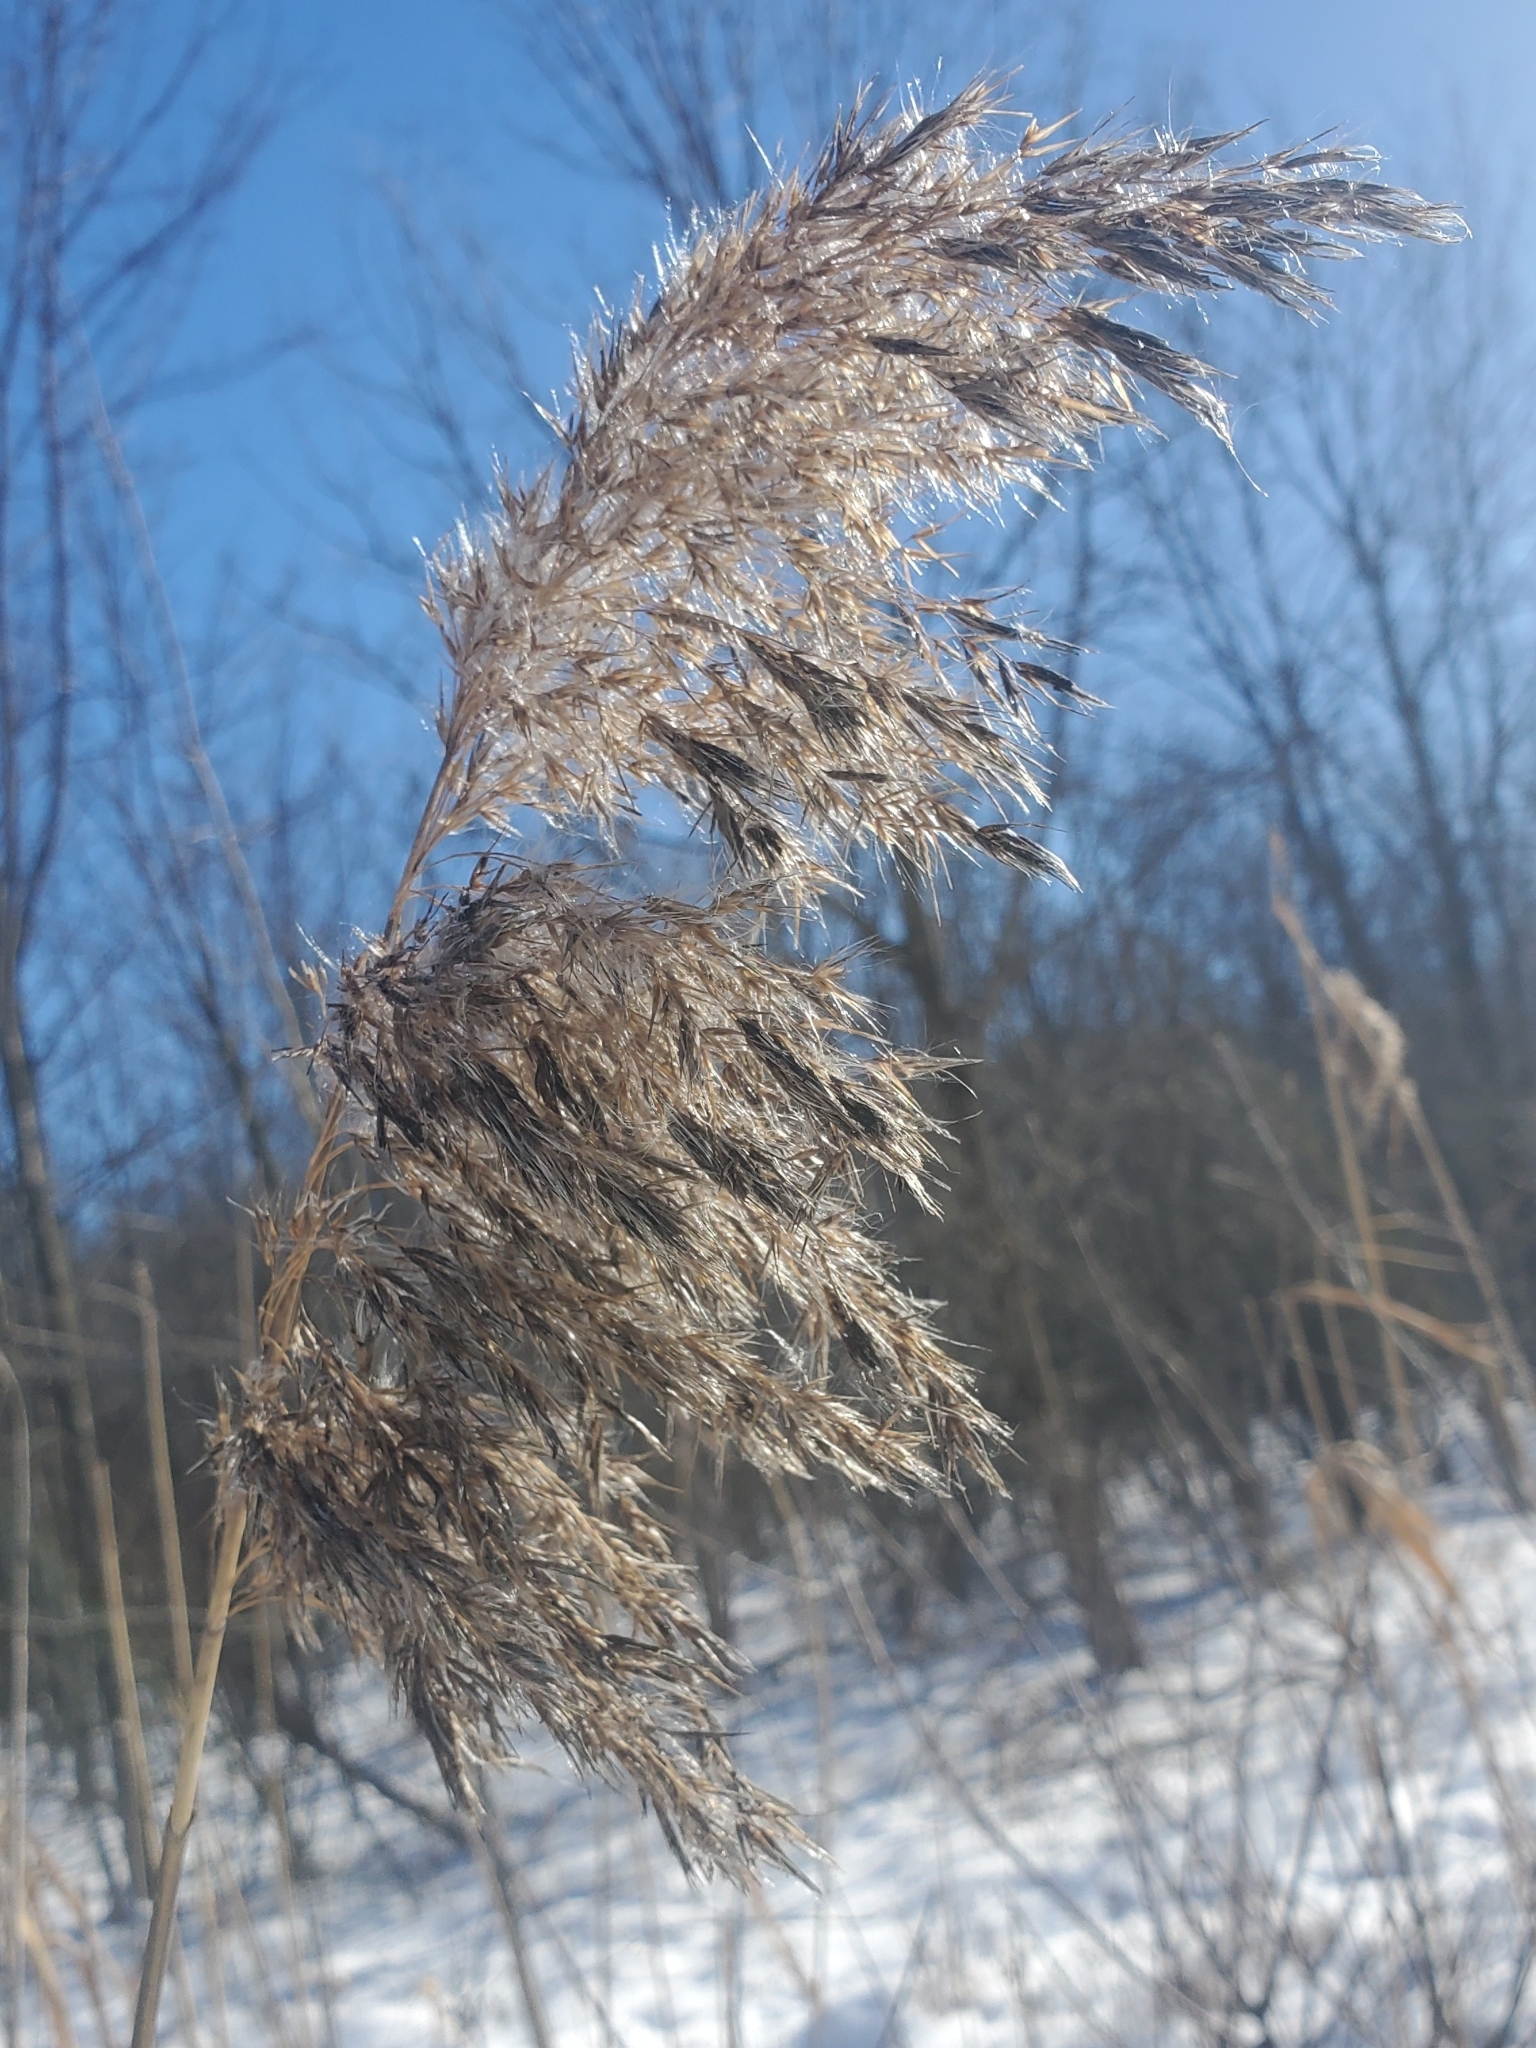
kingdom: Plantae
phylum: Tracheophyta
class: Liliopsida
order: Poales
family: Poaceae
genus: Phragmites
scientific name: Phragmites australis
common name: Common reed
